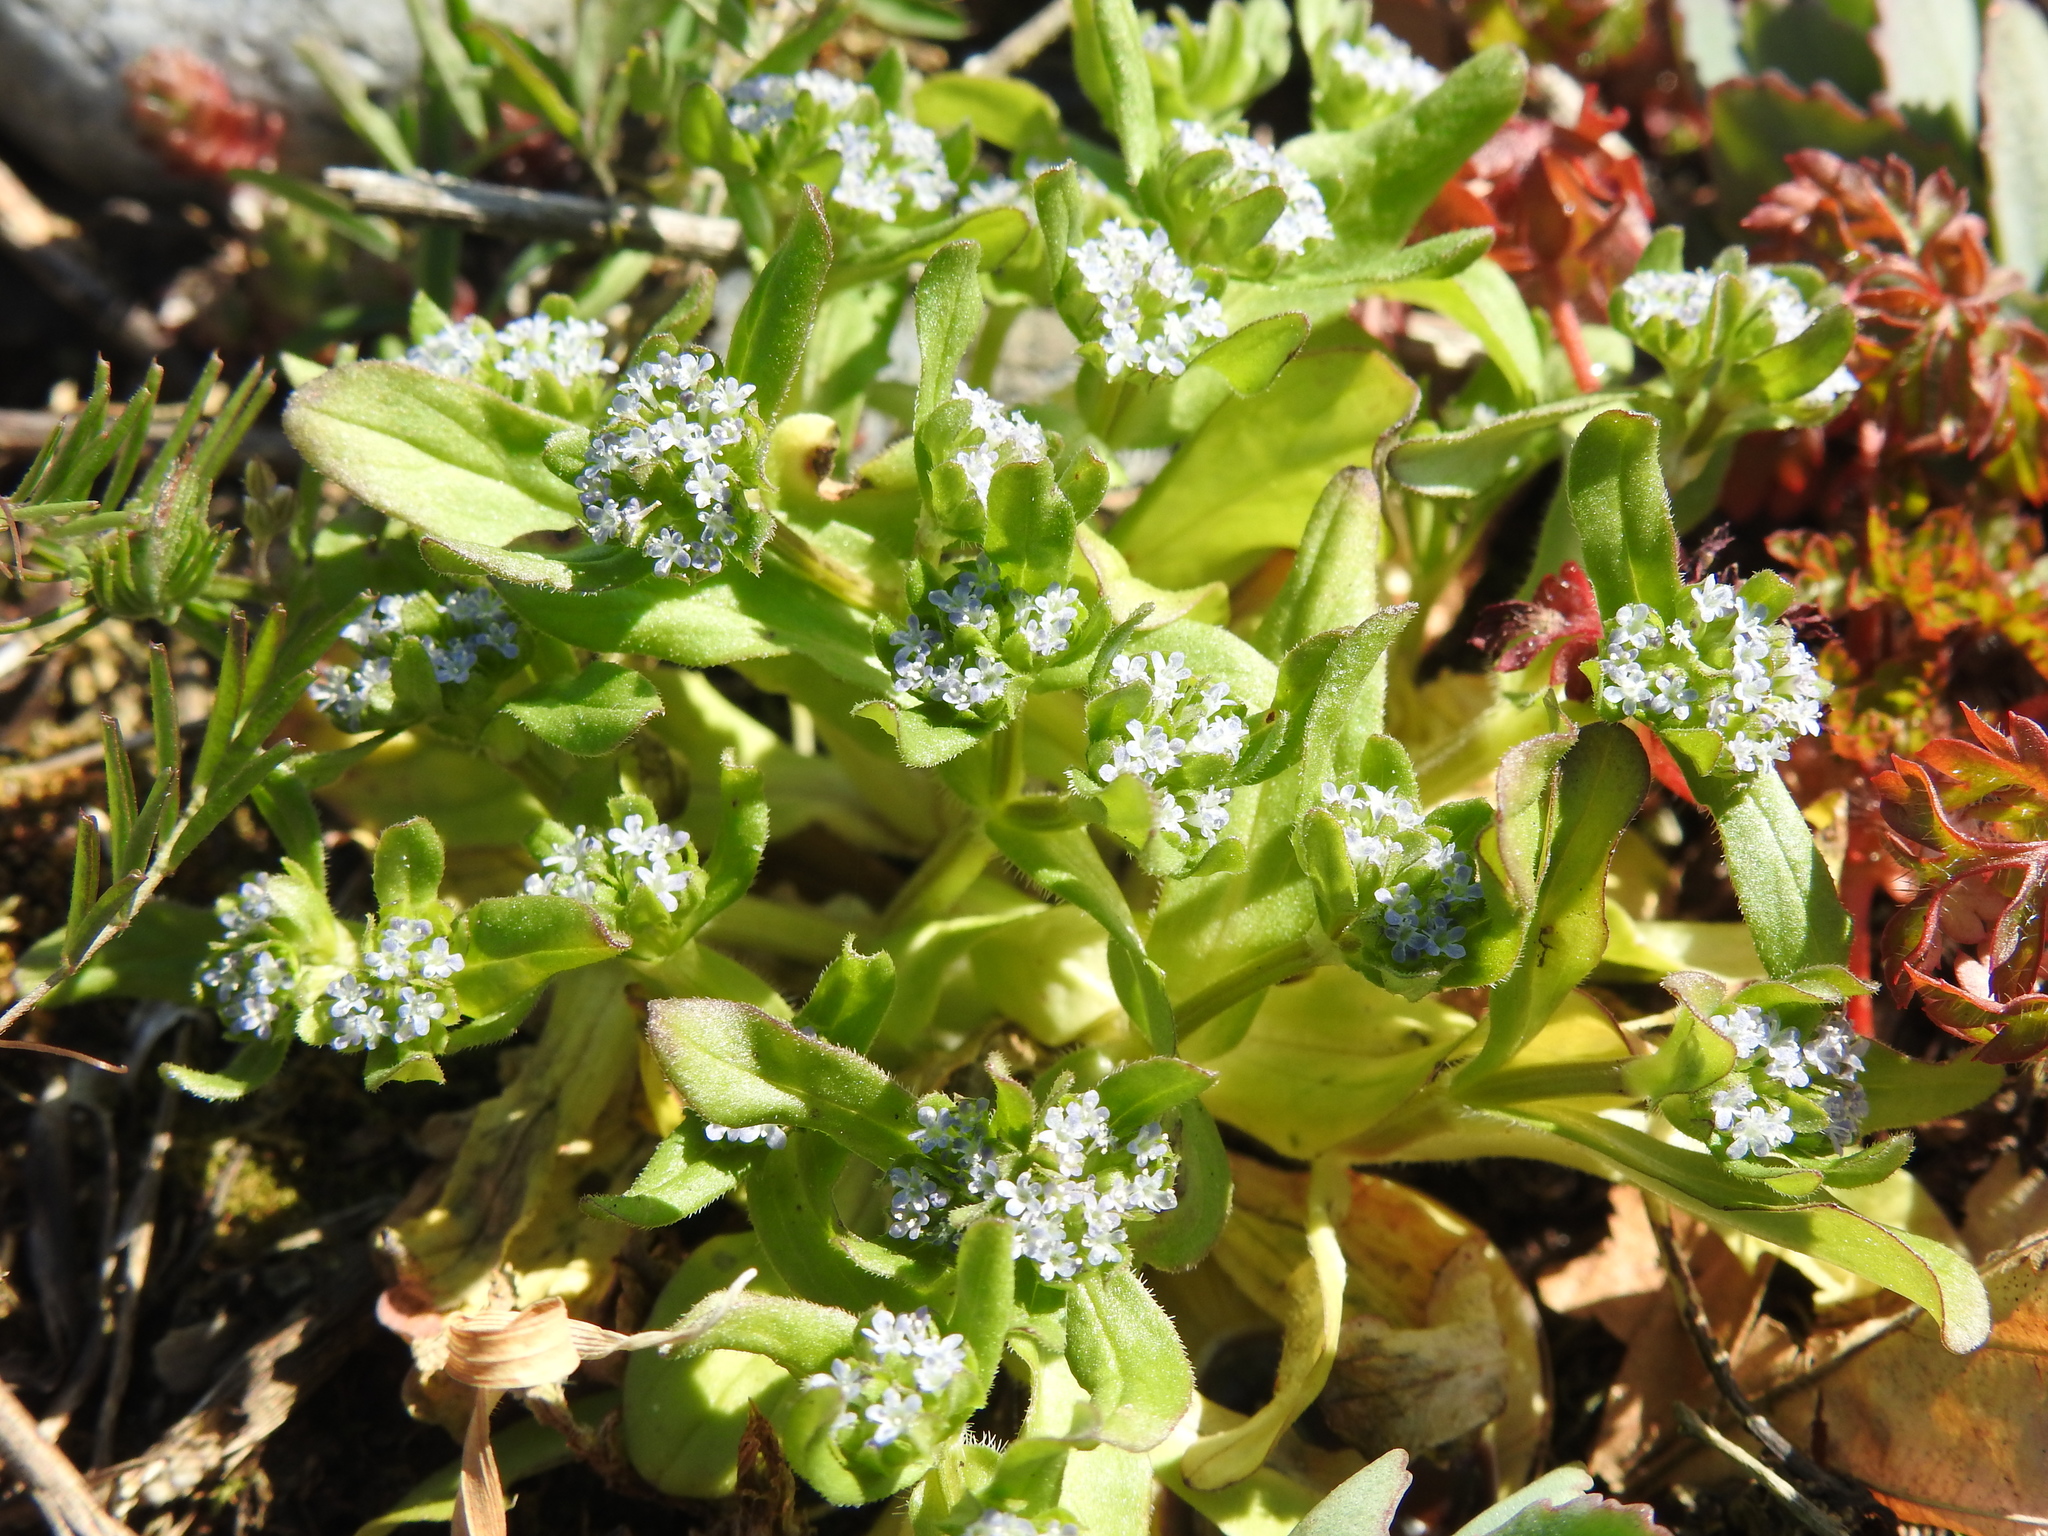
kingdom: Plantae
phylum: Tracheophyta
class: Magnoliopsida
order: Dipsacales
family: Caprifoliaceae
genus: Valerianella
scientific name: Valerianella locusta
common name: Common cornsalad
